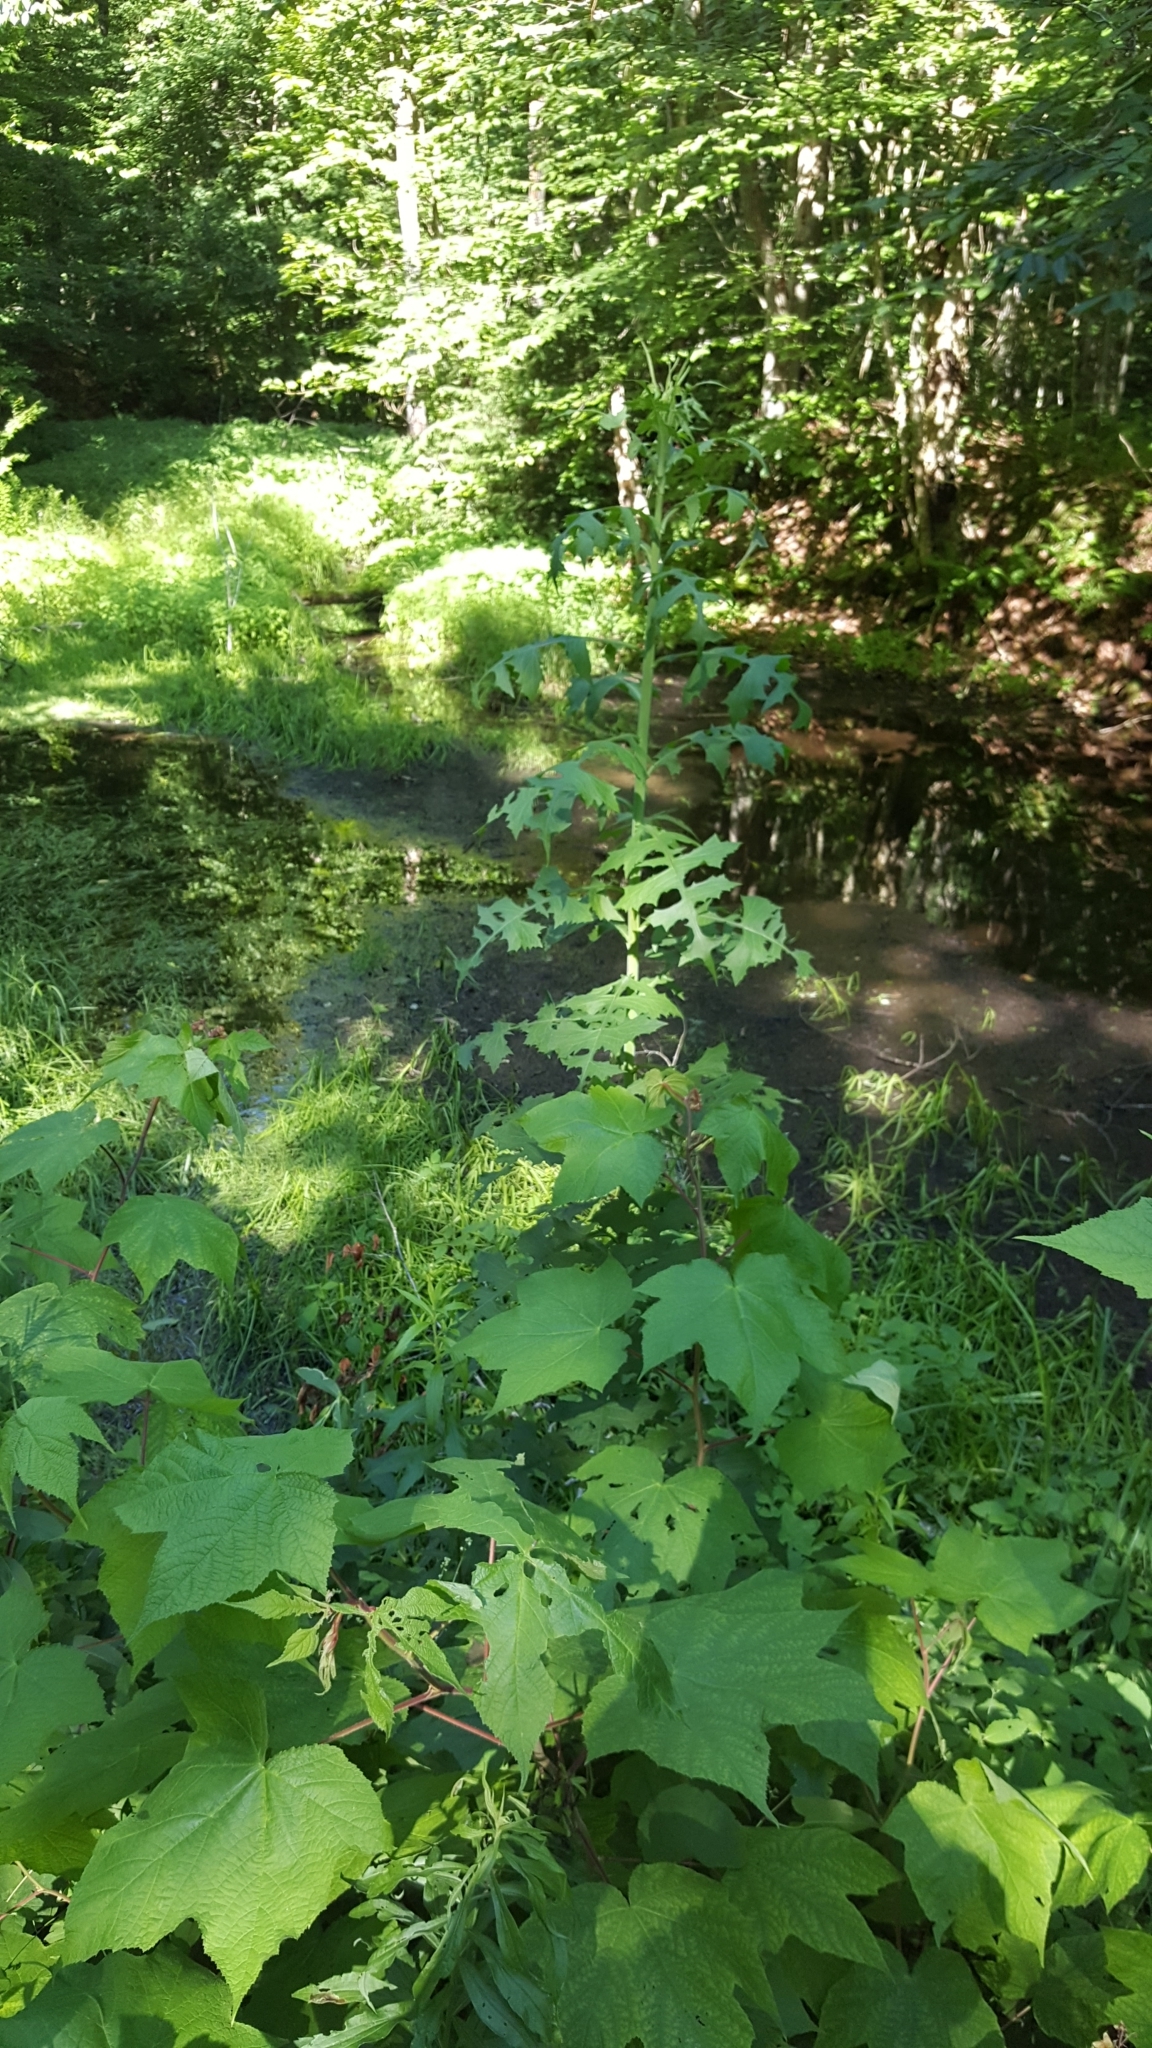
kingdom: Plantae
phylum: Tracheophyta
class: Magnoliopsida
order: Asterales
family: Asteraceae
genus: Lactuca
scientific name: Lactuca biennis
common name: Blue wood lettuce
